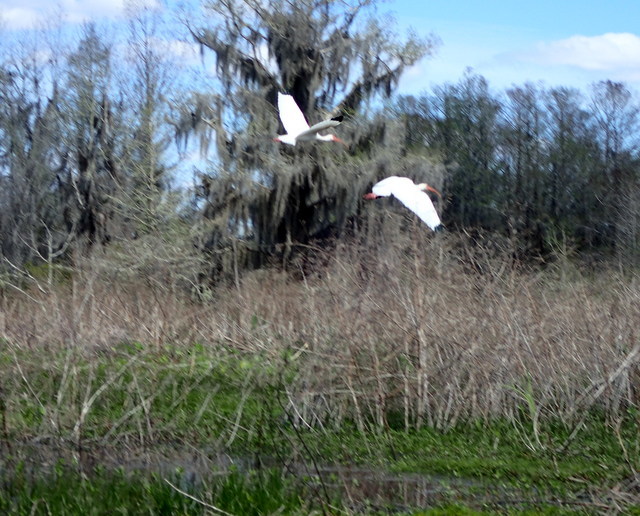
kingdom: Animalia
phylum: Chordata
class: Aves
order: Pelecaniformes
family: Threskiornithidae
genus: Eudocimus
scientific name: Eudocimus albus
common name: White ibis
